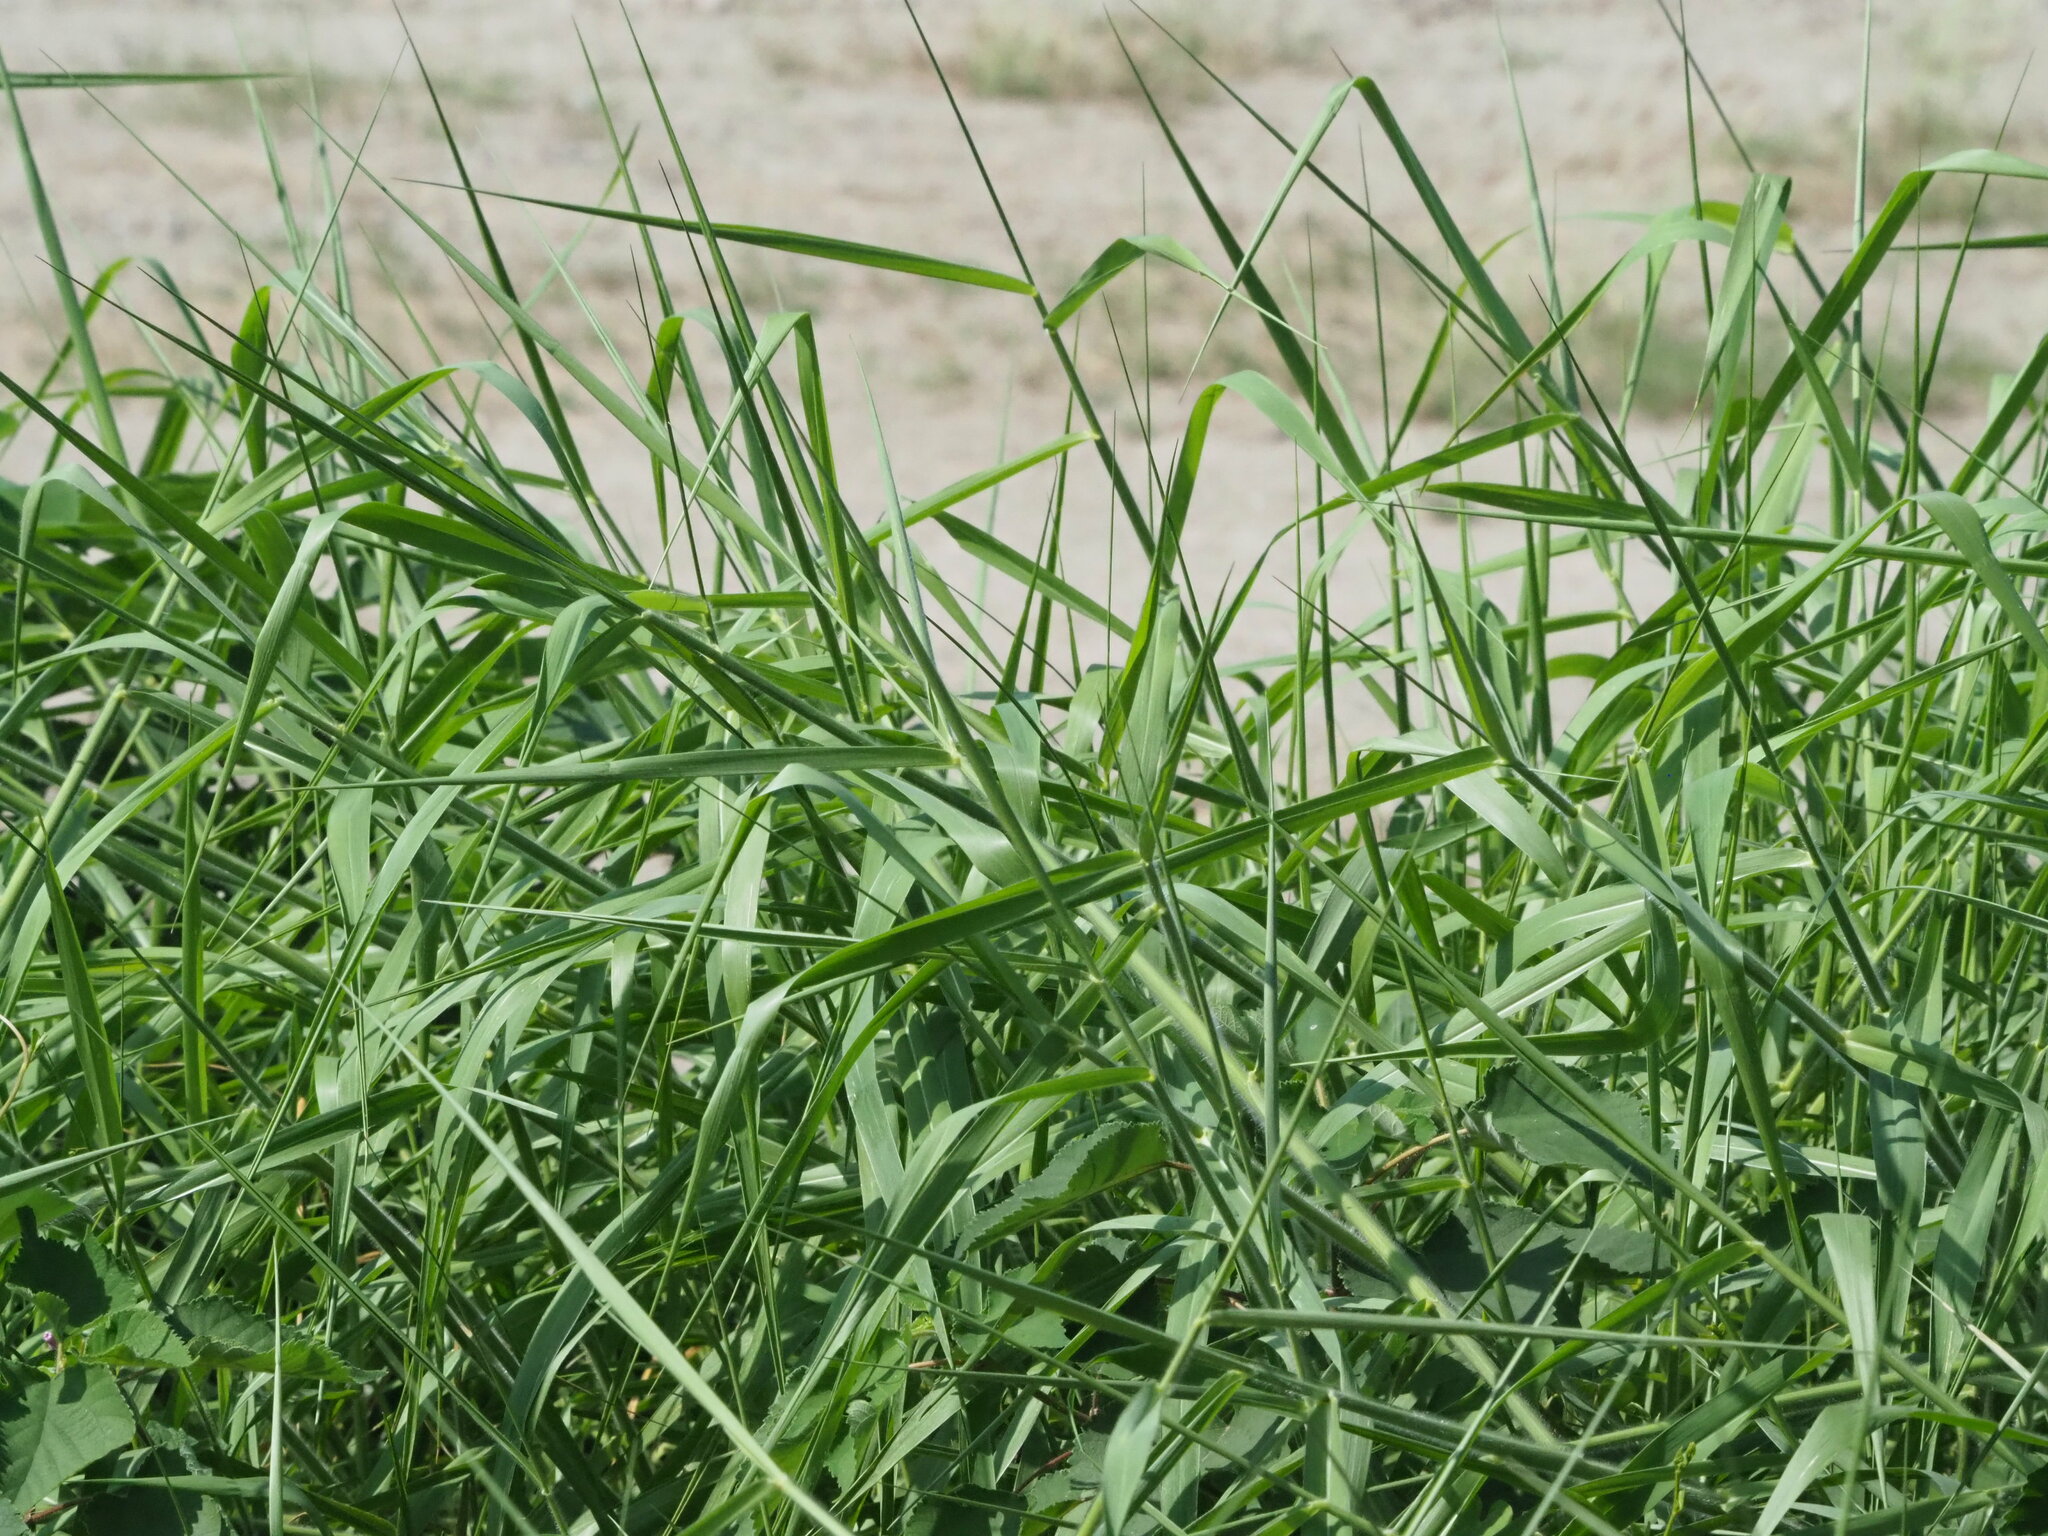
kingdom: Plantae
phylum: Tracheophyta
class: Liliopsida
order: Poales
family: Poaceae
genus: Urochloa
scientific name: Urochloa mutica
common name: Para grass
